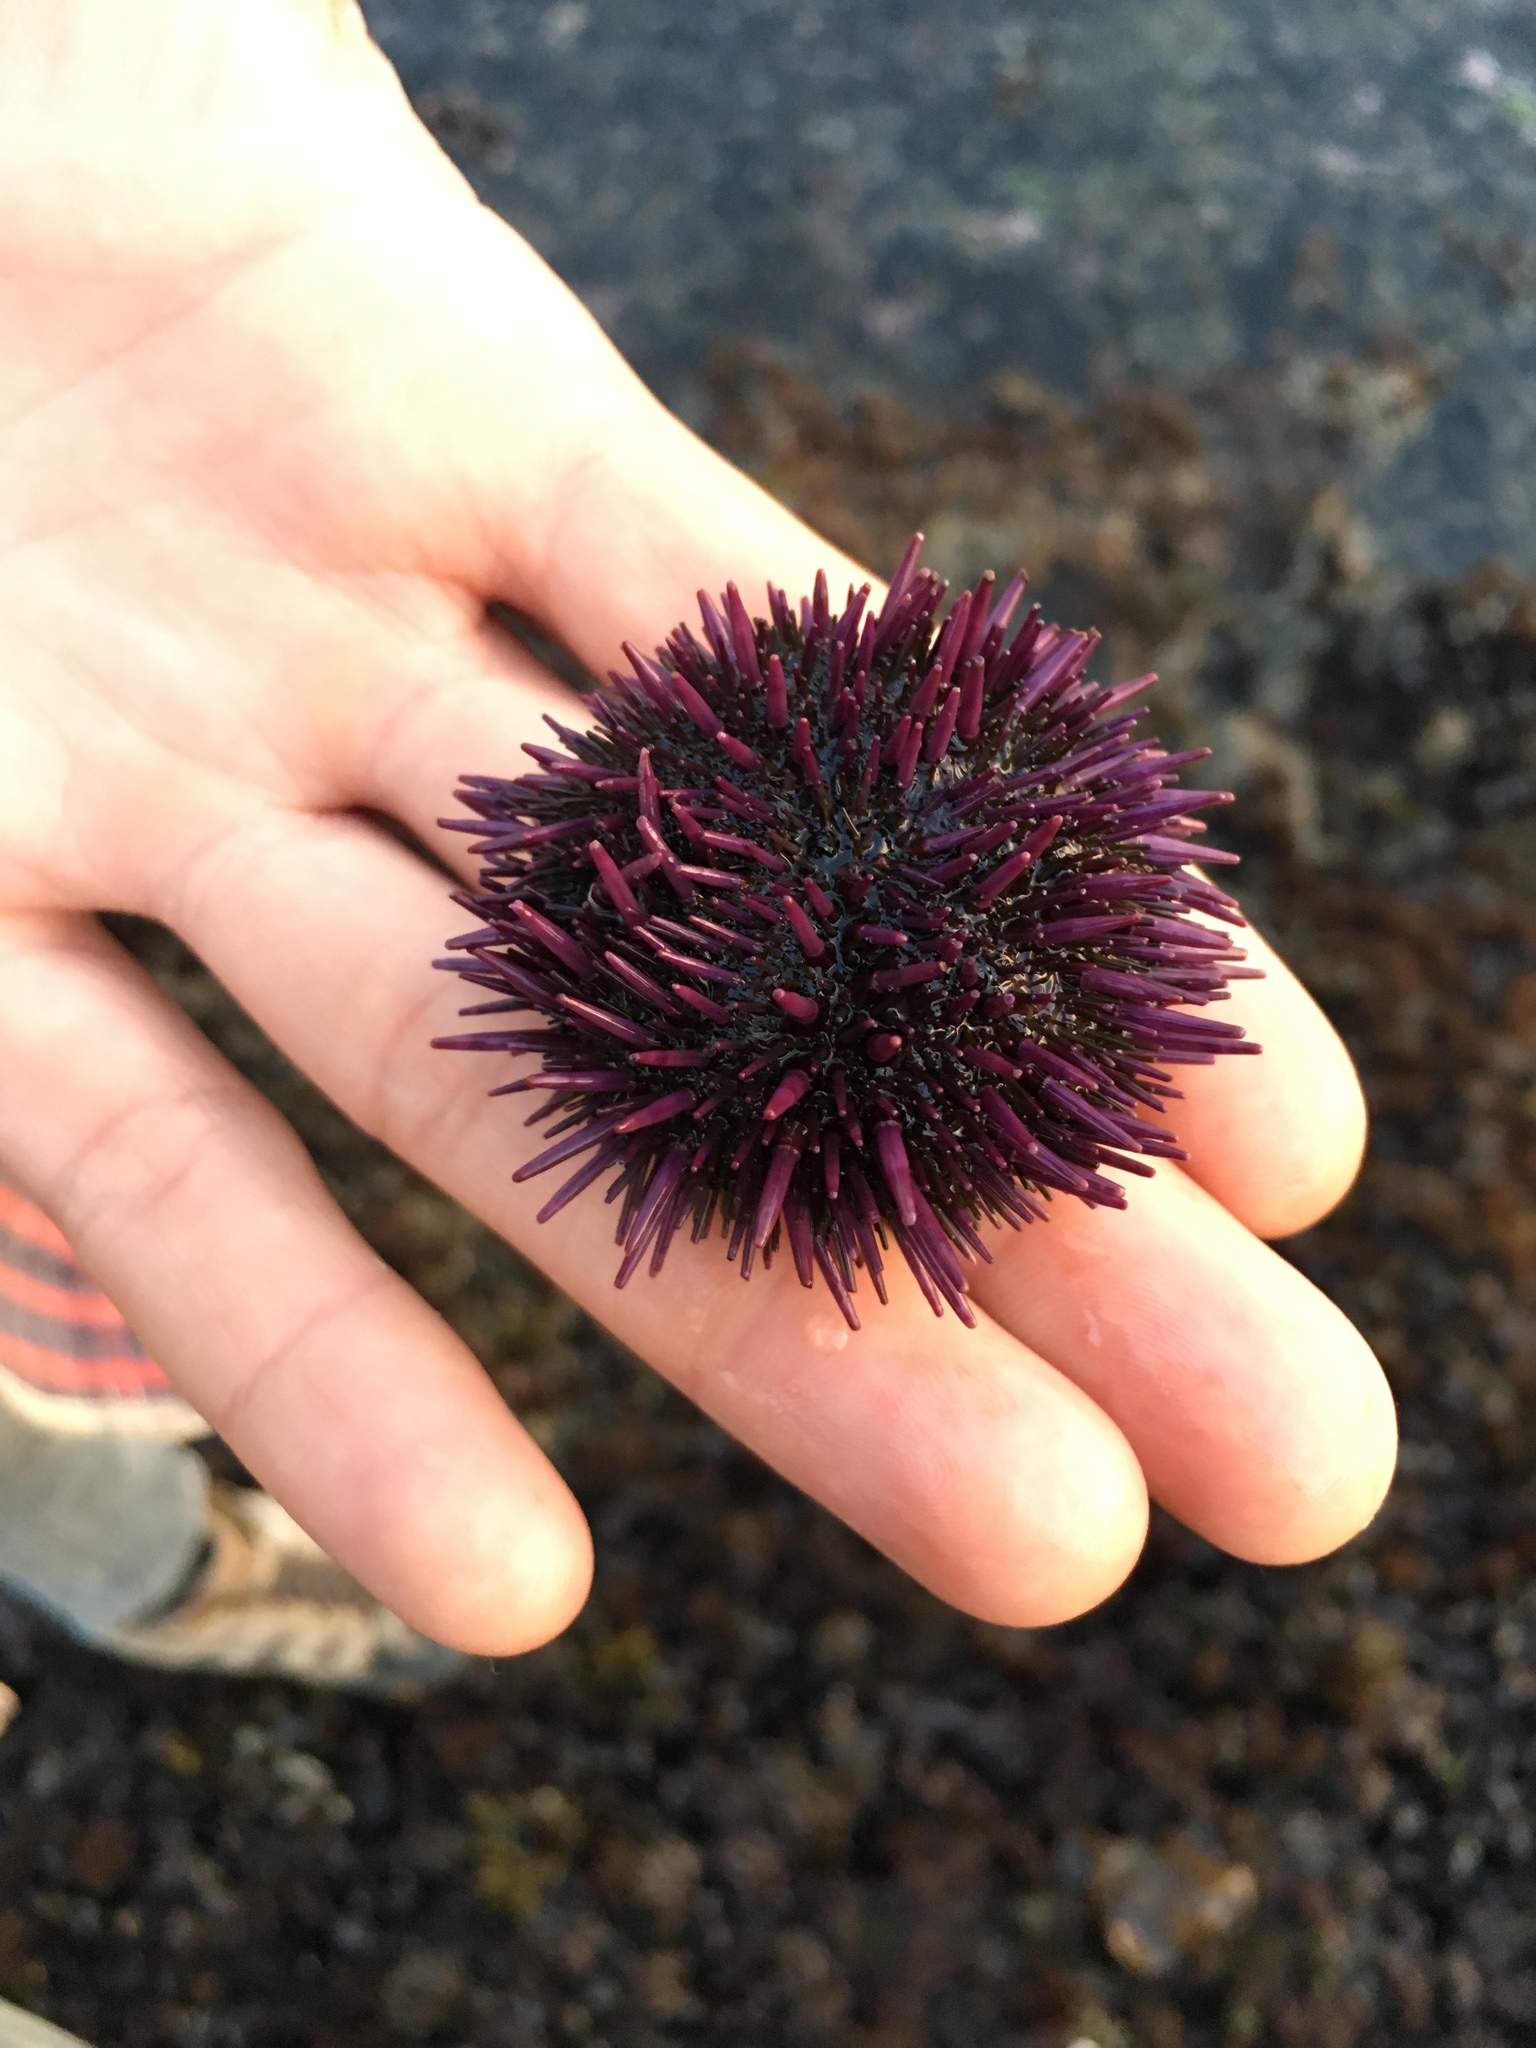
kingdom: Animalia
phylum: Echinodermata
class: Echinoidea
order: Camarodonta
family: Strongylocentrotidae
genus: Strongylocentrotus
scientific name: Strongylocentrotus purpuratus
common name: Purple sea urchin
